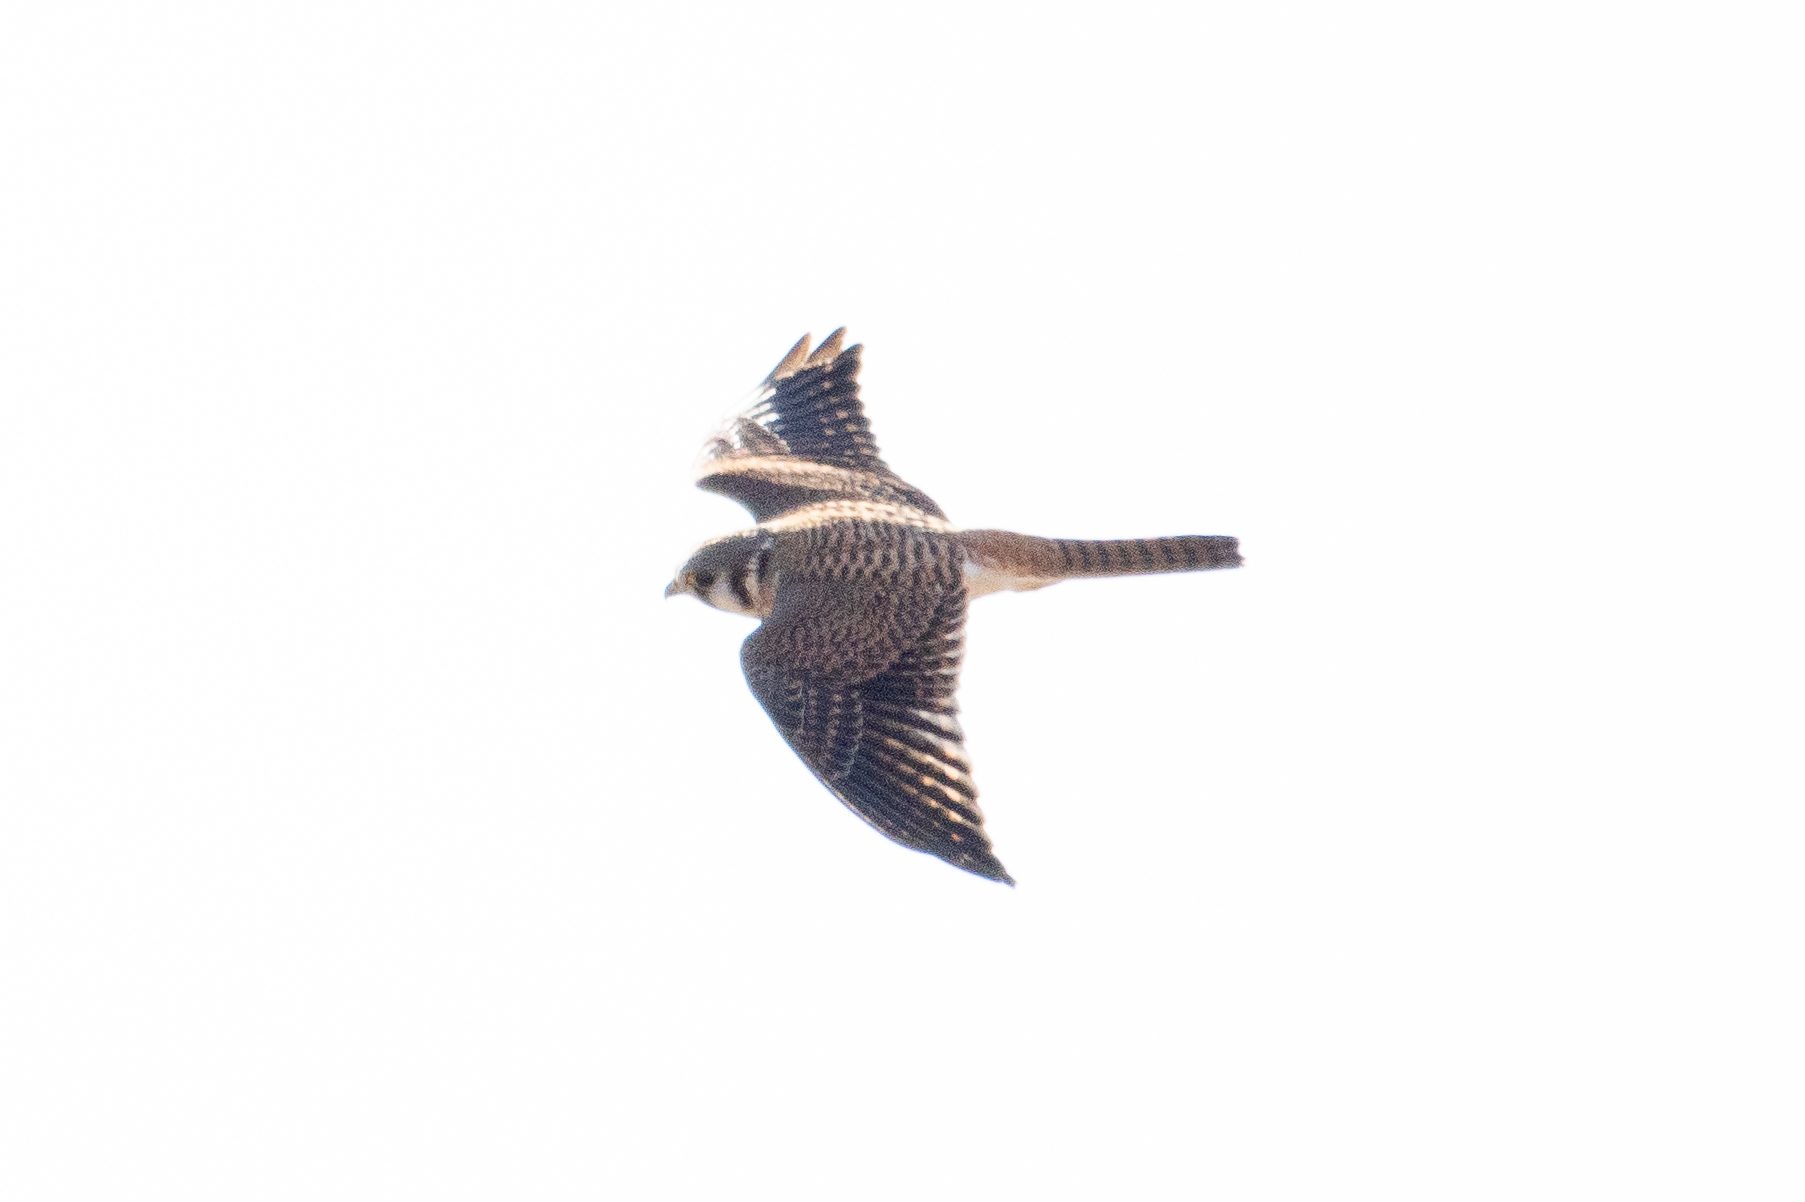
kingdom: Animalia
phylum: Chordata
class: Aves
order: Falconiformes
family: Falconidae
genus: Falco
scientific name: Falco sparverius
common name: American kestrel
